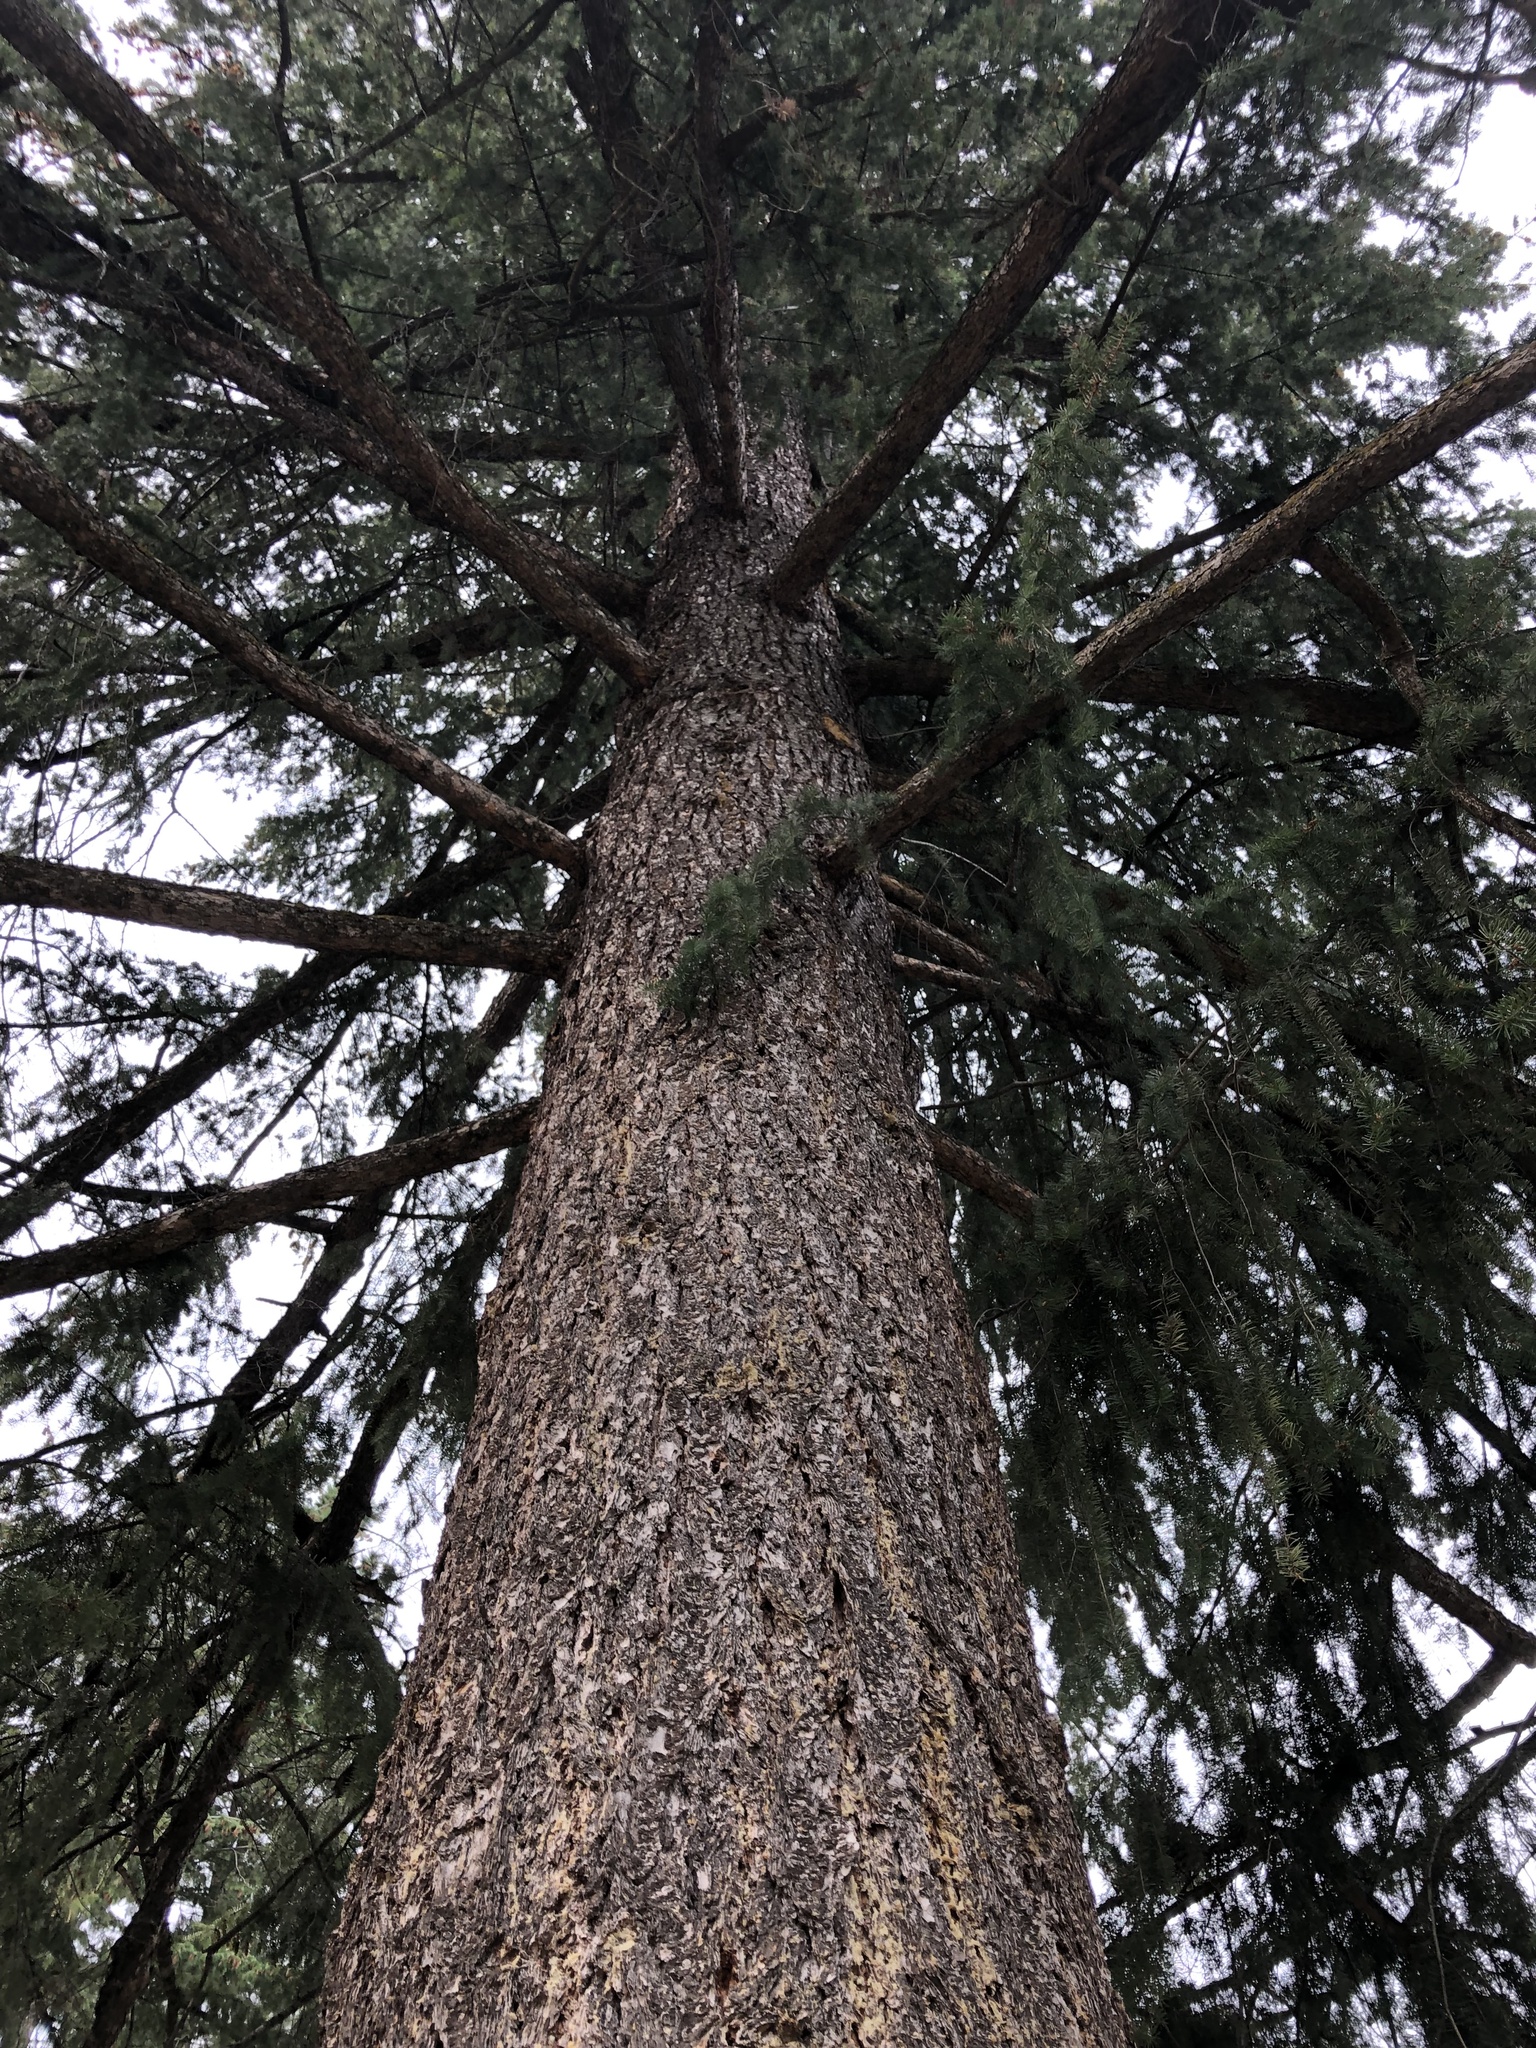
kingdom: Plantae
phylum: Tracheophyta
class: Pinopsida
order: Pinales
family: Pinaceae
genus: Pseudotsuga
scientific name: Pseudotsuga menziesii
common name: Douglas fir
